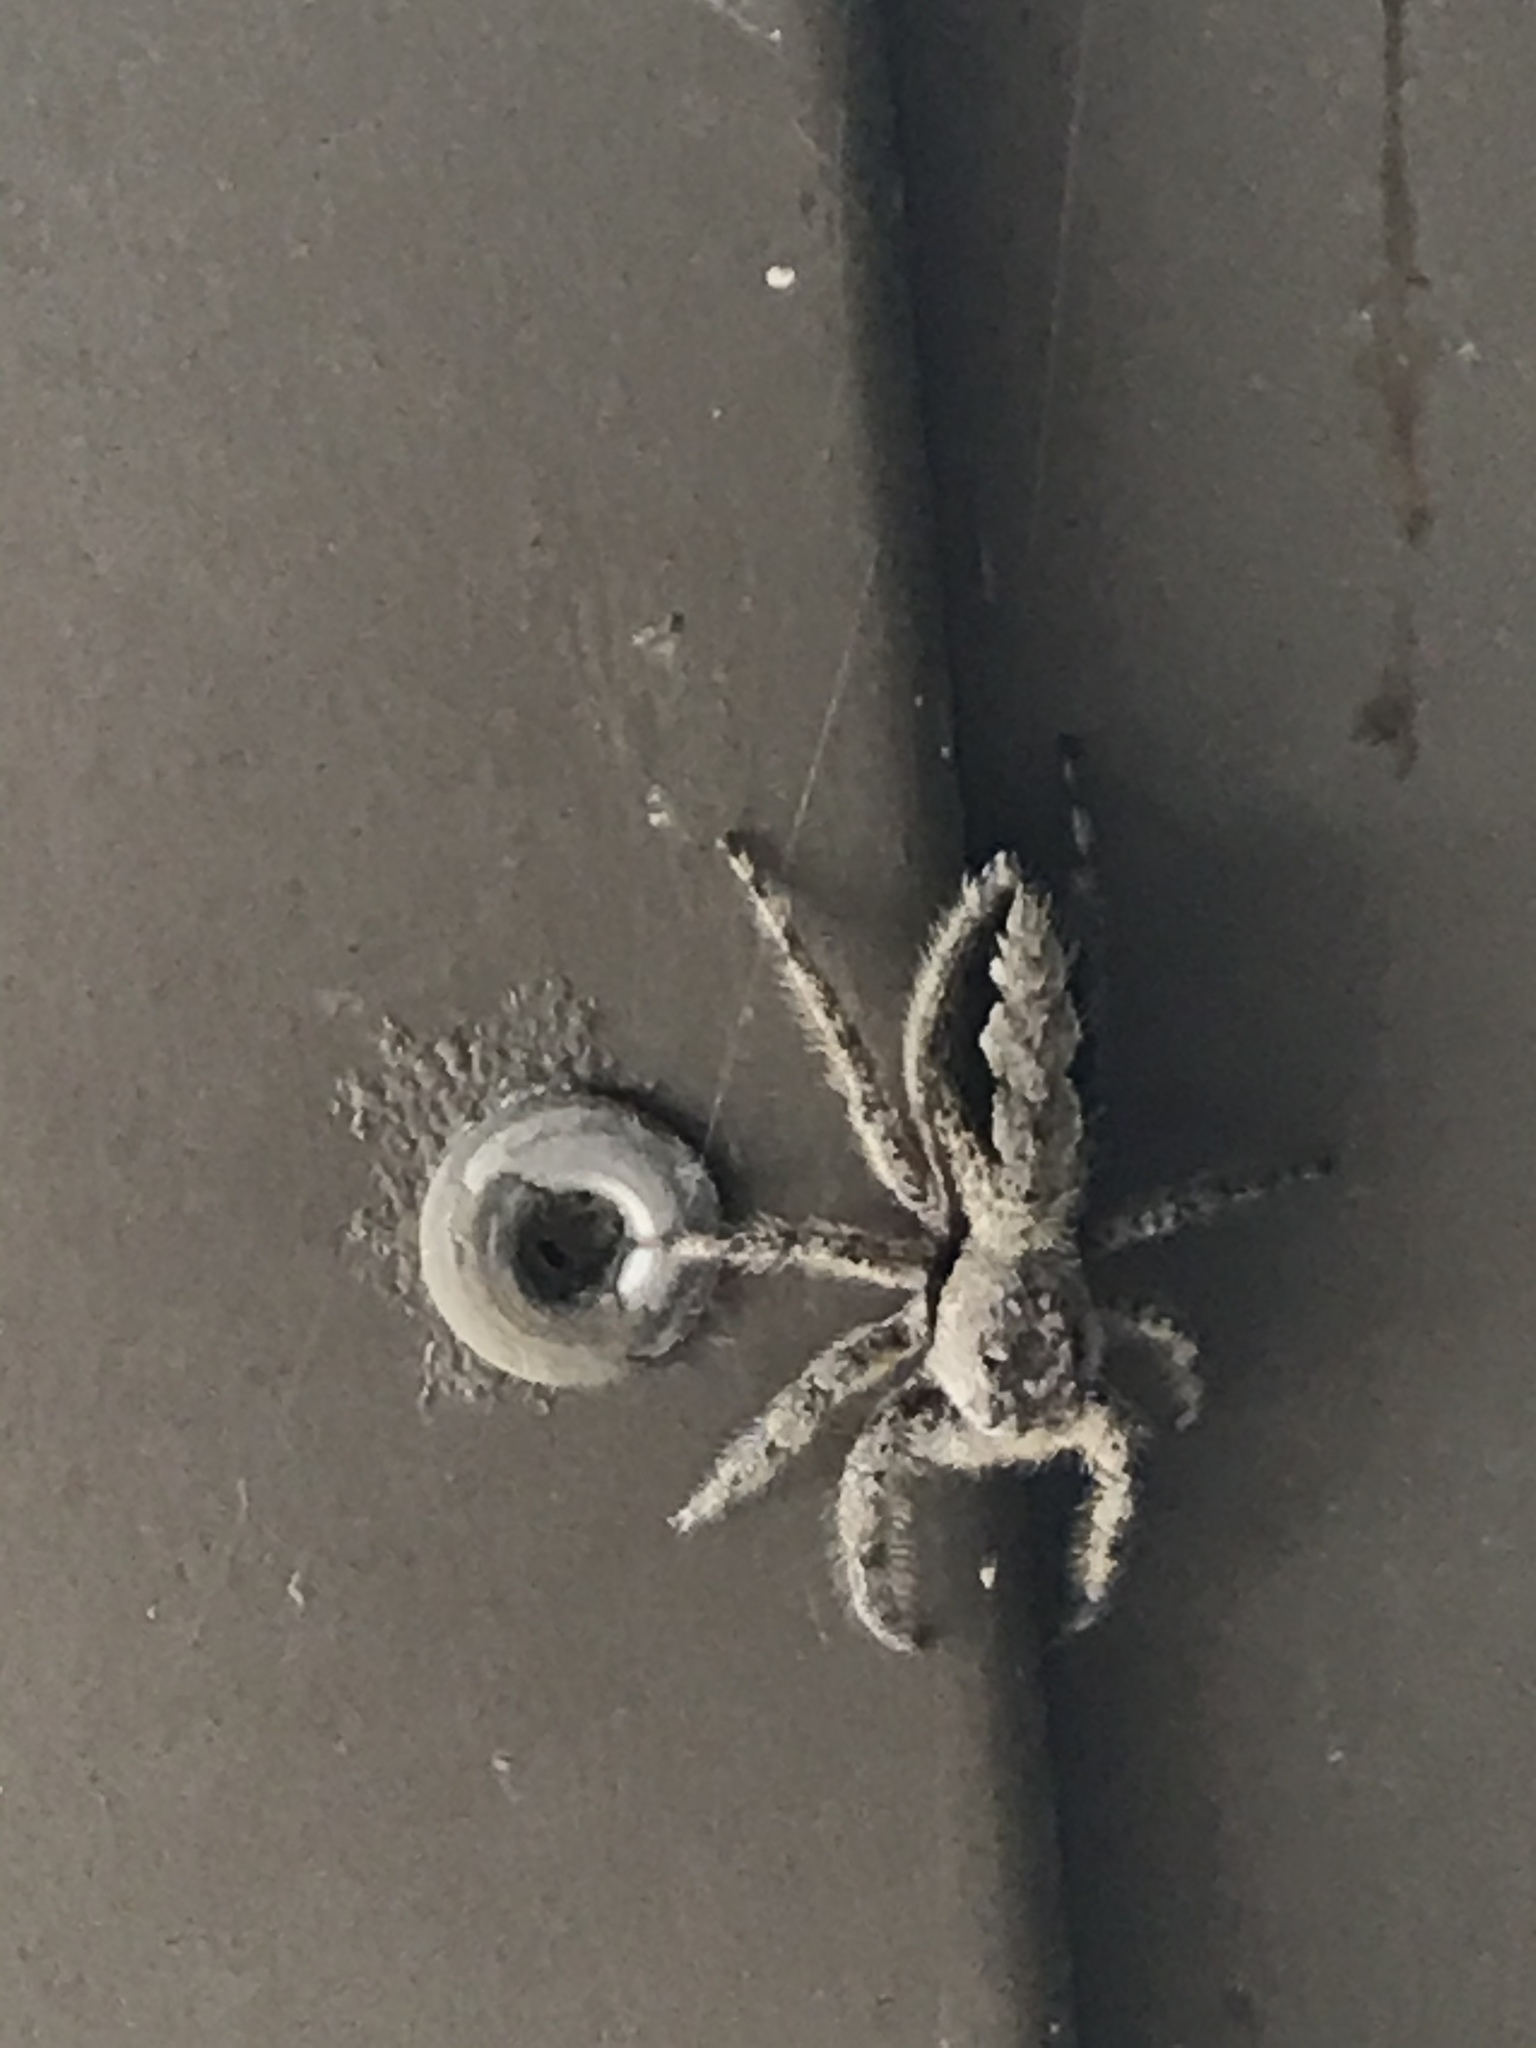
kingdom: Animalia
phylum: Arthropoda
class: Arachnida
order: Araneae
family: Salticidae
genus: Platycryptus
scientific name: Platycryptus undatus
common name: Tan jumping spider
